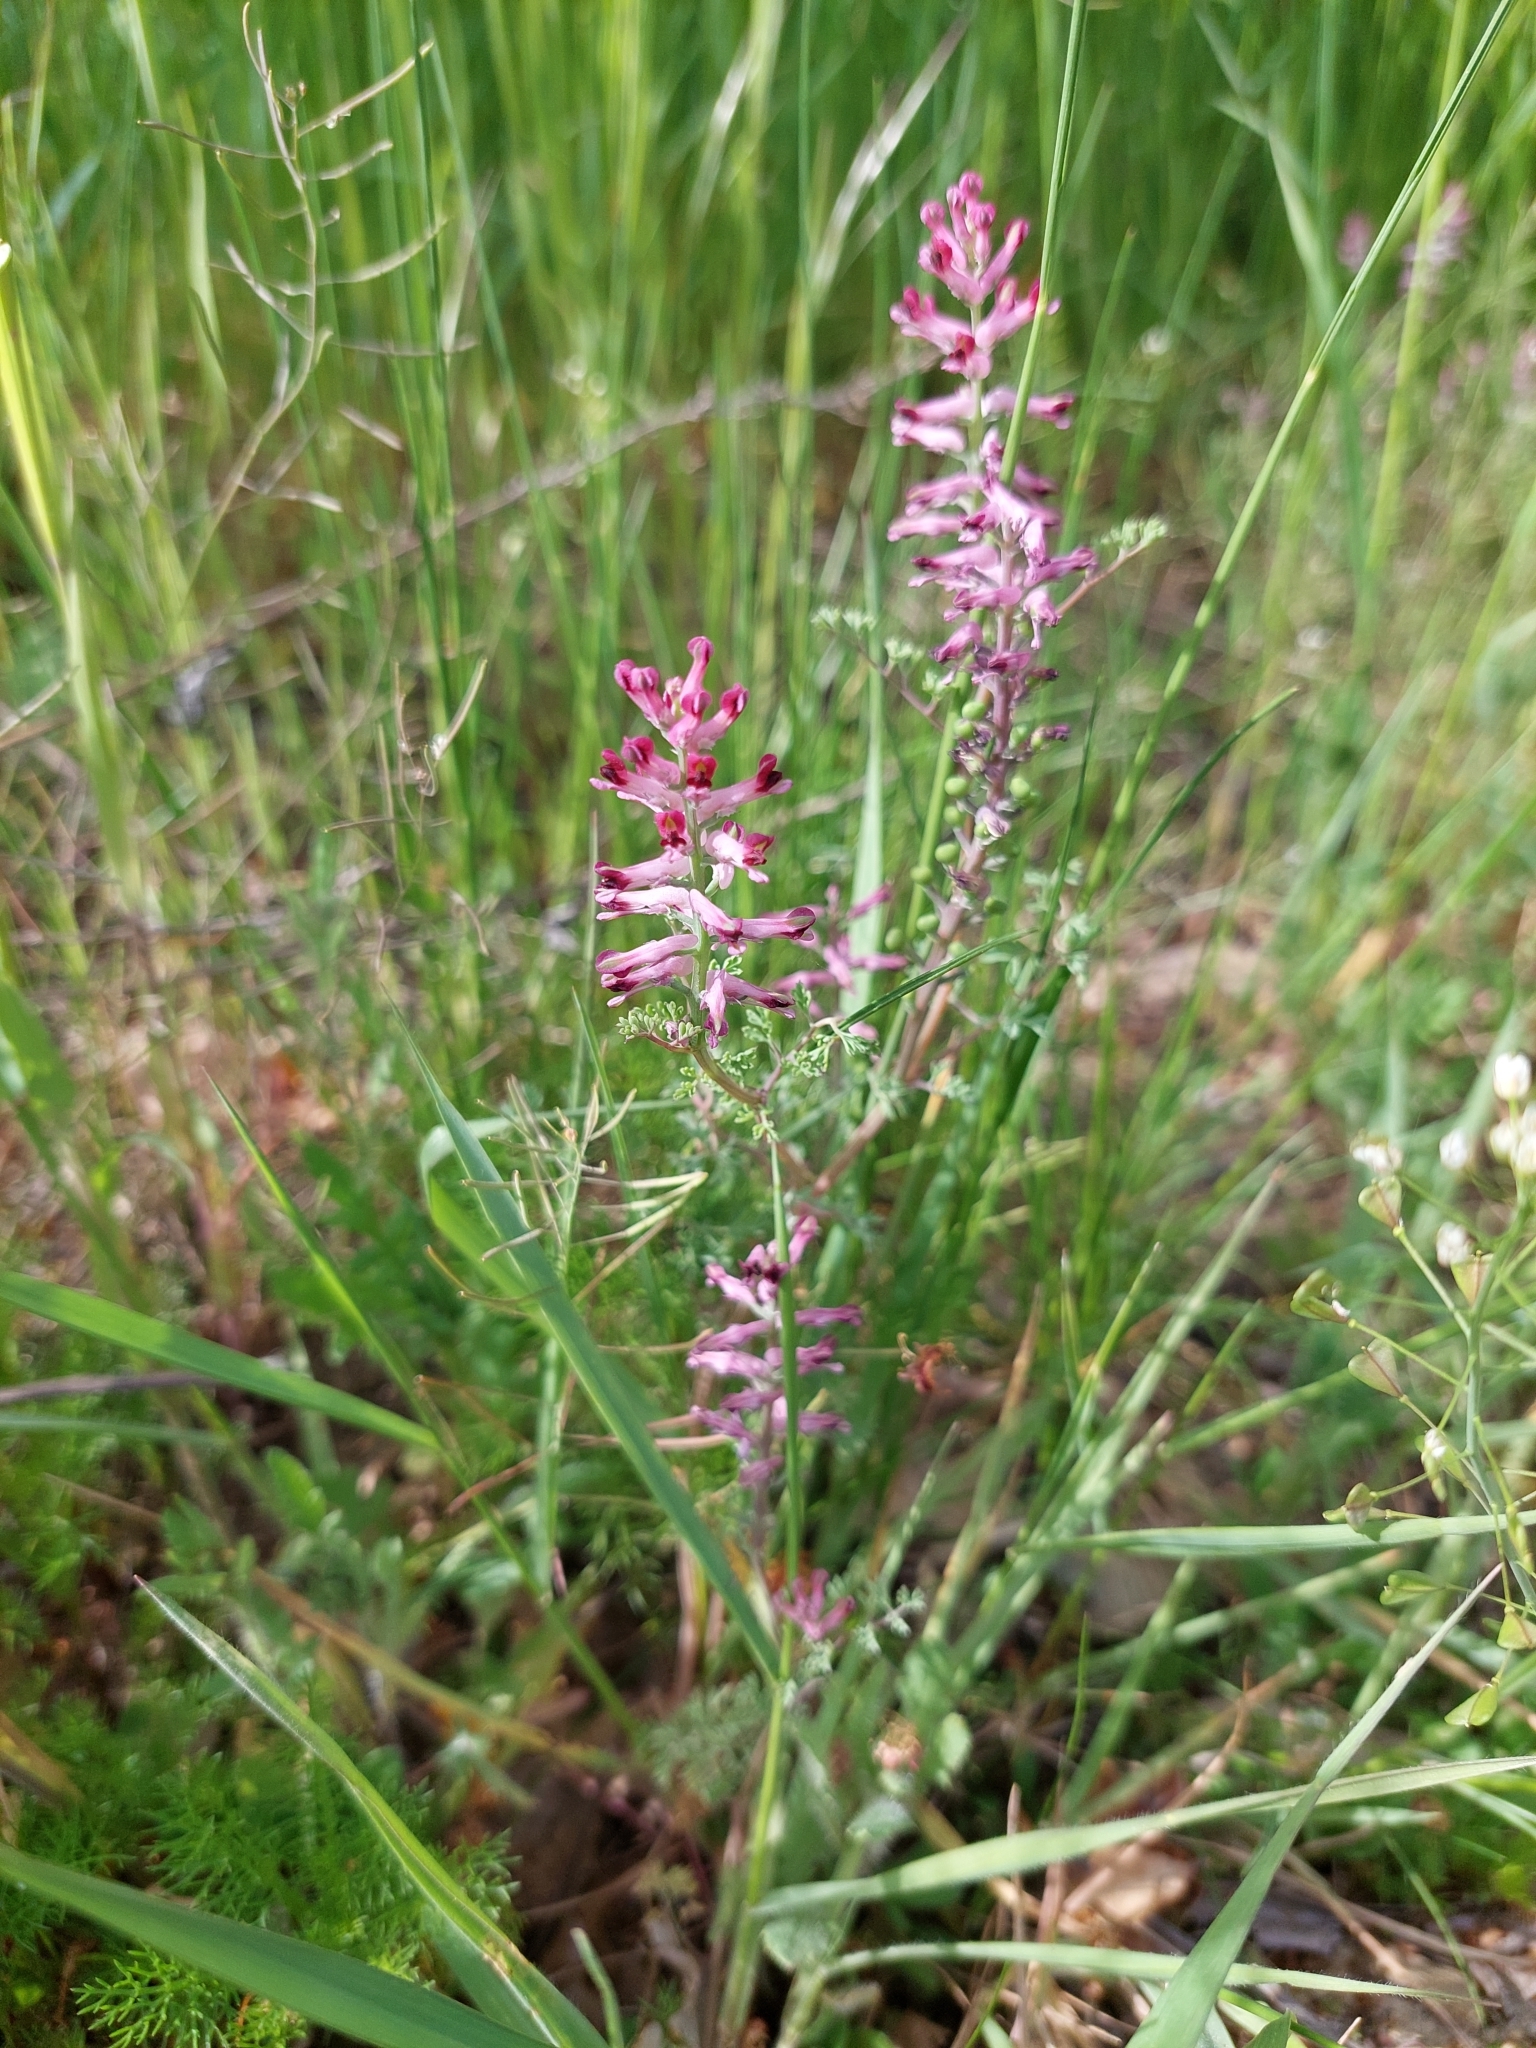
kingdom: Plantae
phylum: Tracheophyta
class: Magnoliopsida
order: Ranunculales
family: Papaveraceae
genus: Fumaria
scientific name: Fumaria officinalis
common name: Common fumitory
